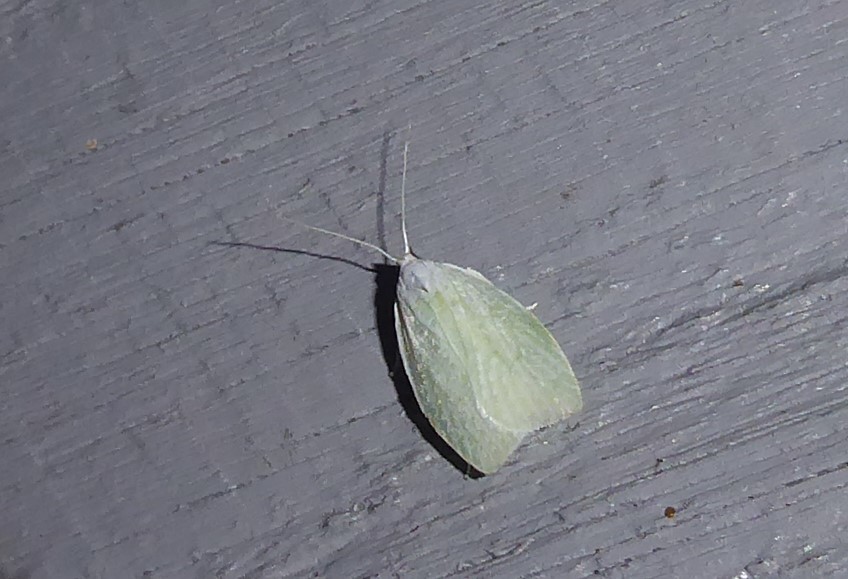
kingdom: Animalia
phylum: Arthropoda
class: Insecta
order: Lepidoptera
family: Oecophoridae
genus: Nymphostola
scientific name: Nymphostola galactina
